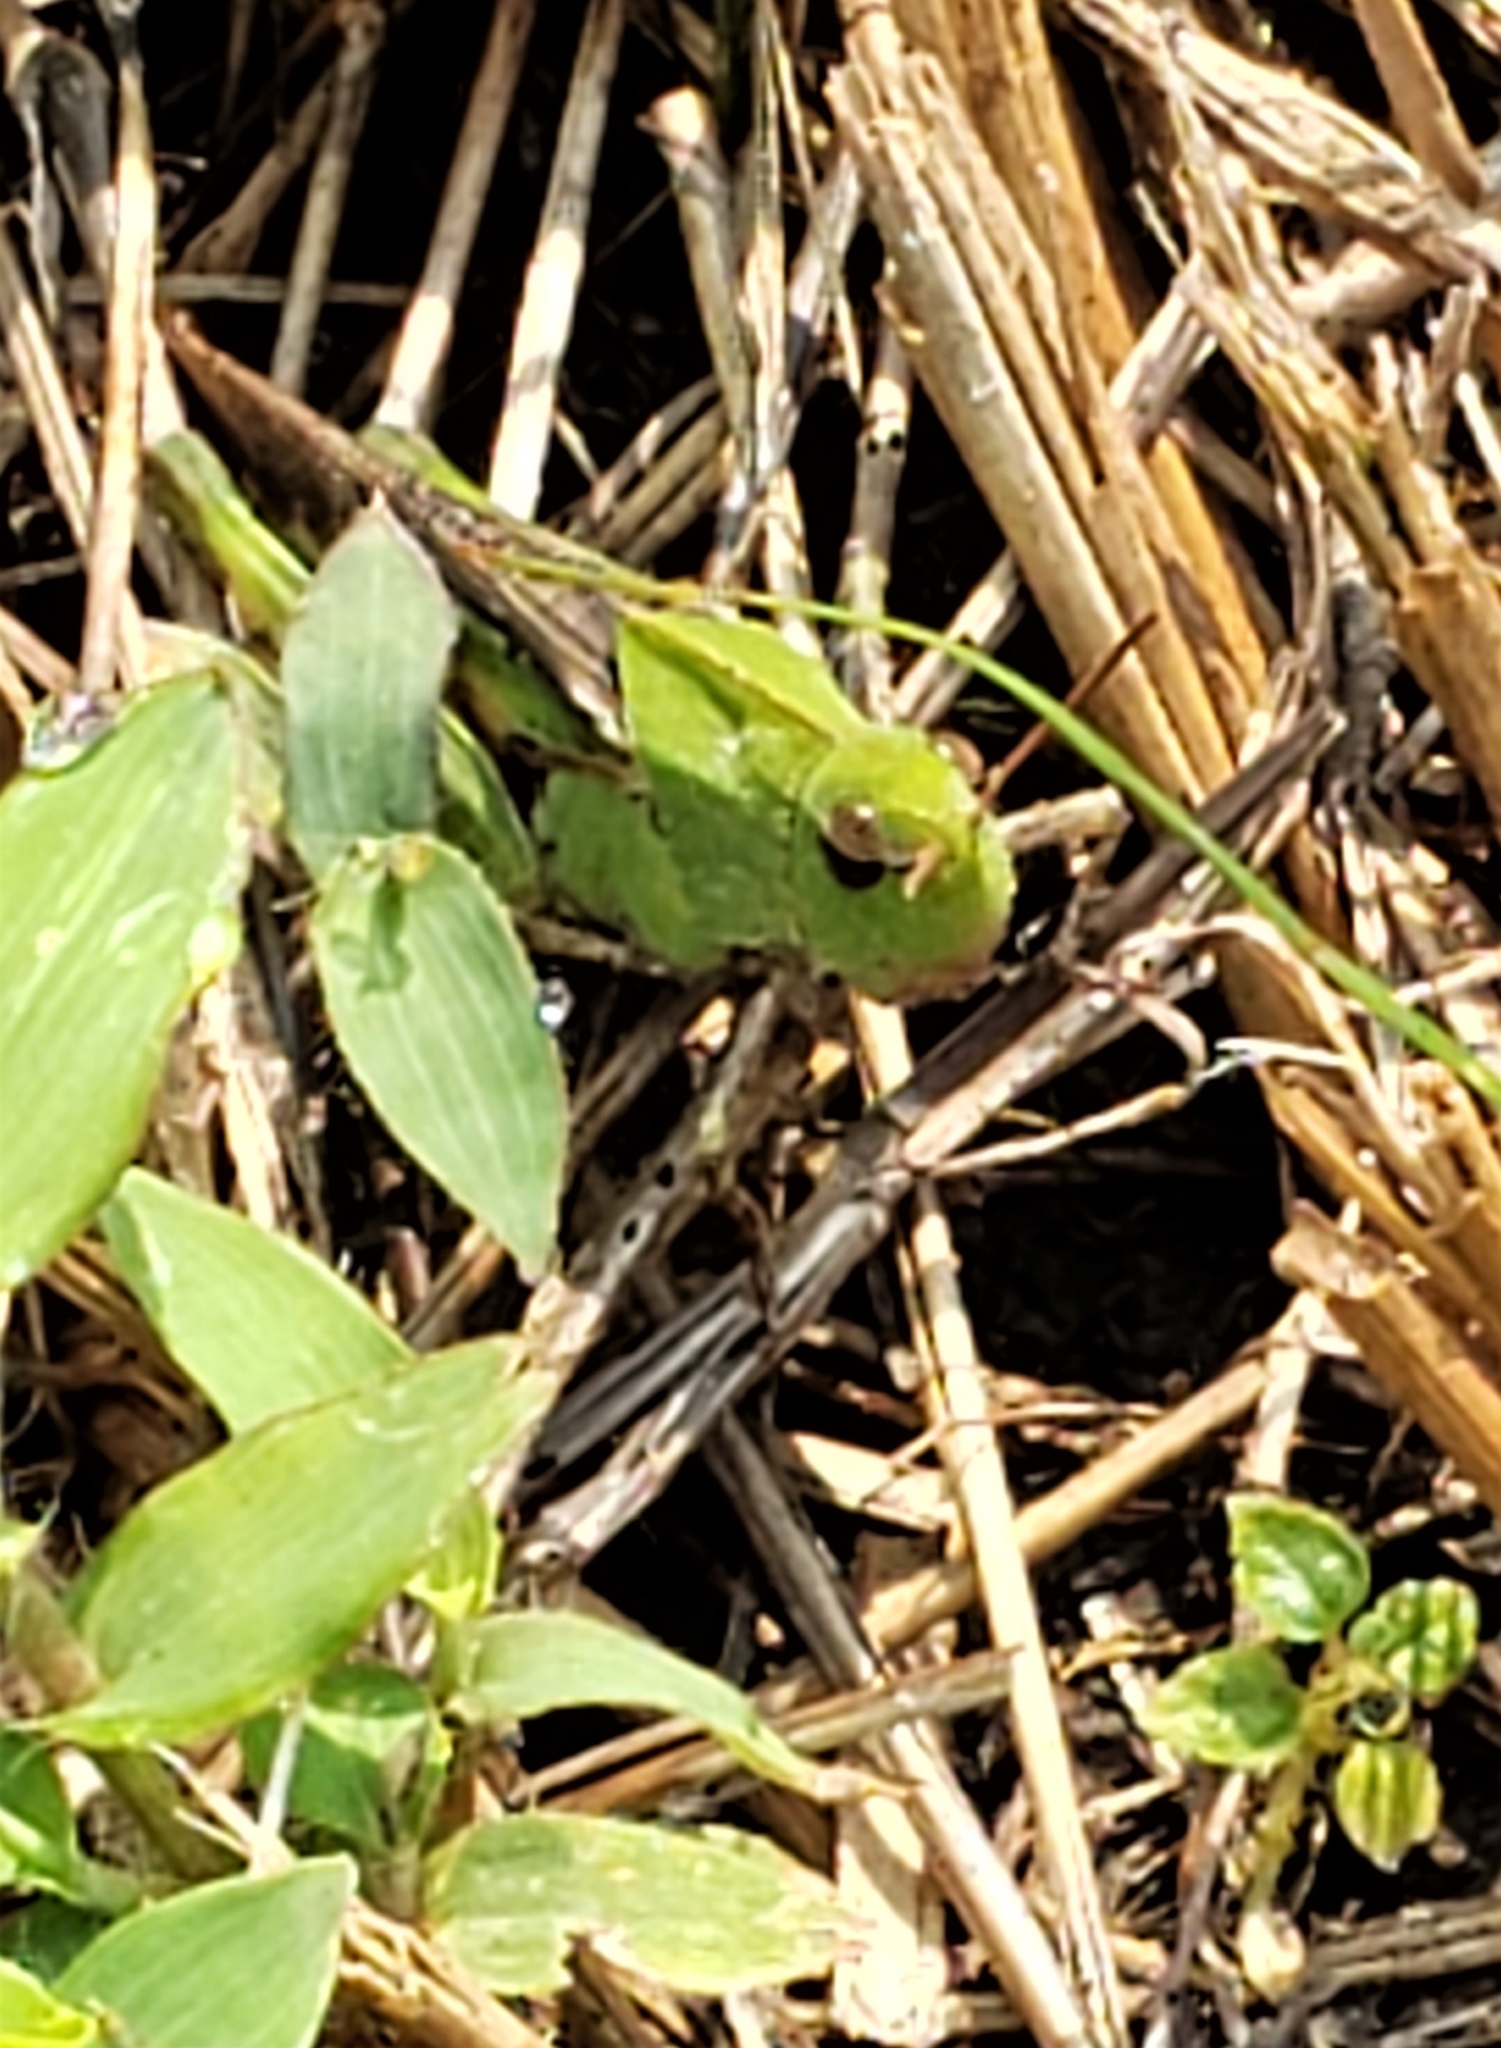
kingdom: Animalia
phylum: Arthropoda
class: Insecta
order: Orthoptera
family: Acrididae
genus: Chortophaga
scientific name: Chortophaga viridifasciata
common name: Green-striped grasshopper
